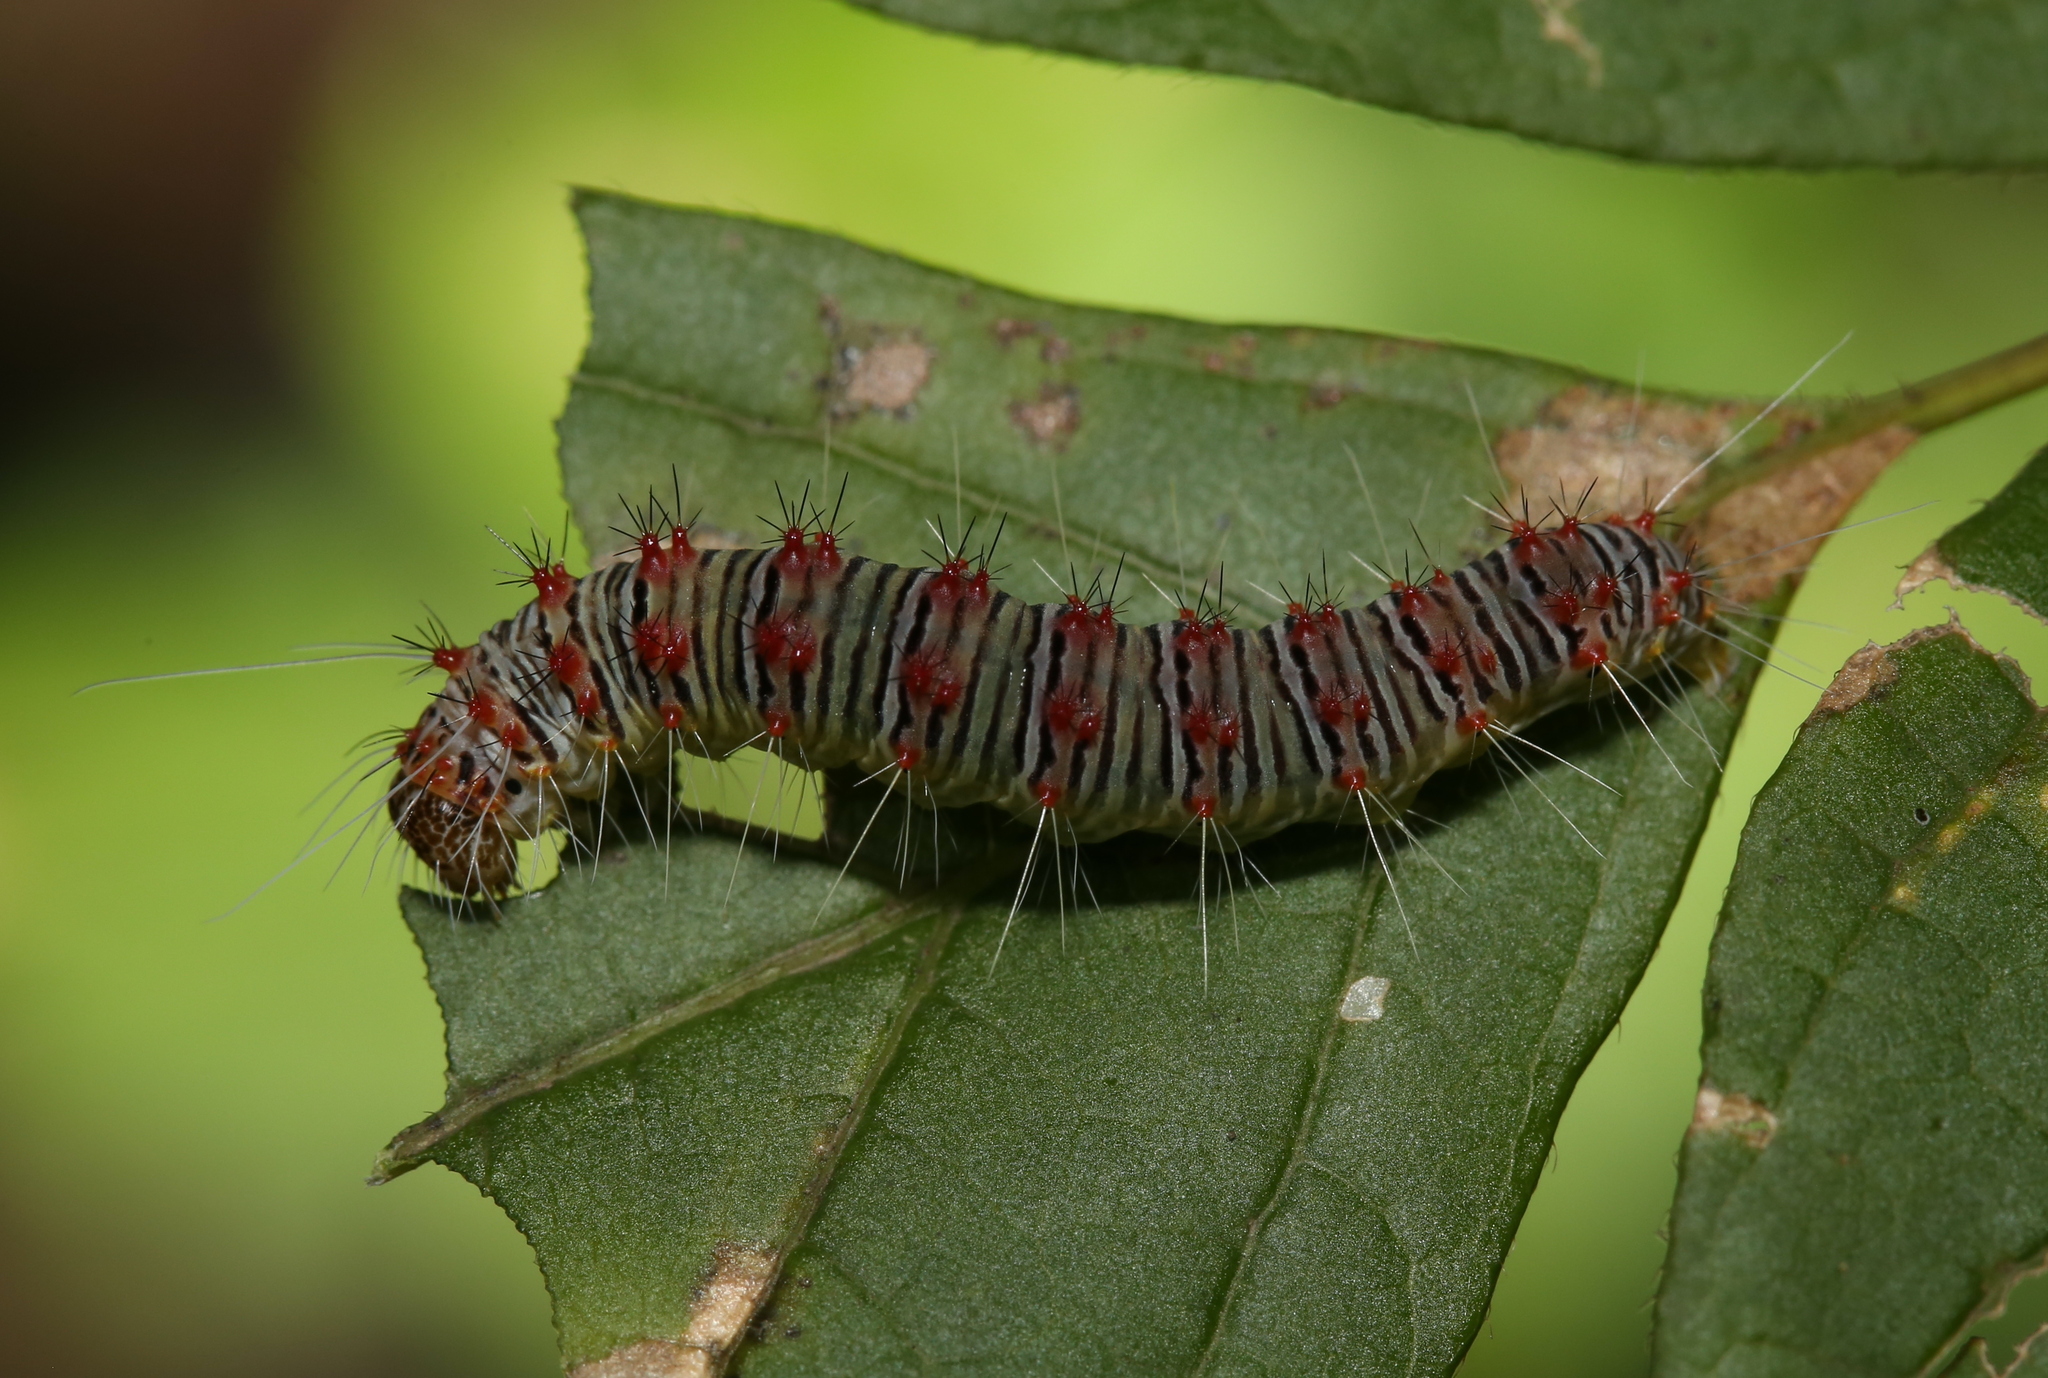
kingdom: Animalia
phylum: Arthropoda
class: Insecta
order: Lepidoptera
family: Noctuidae
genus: Acronicta
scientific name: Acronicta retardata
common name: Maple dagger
